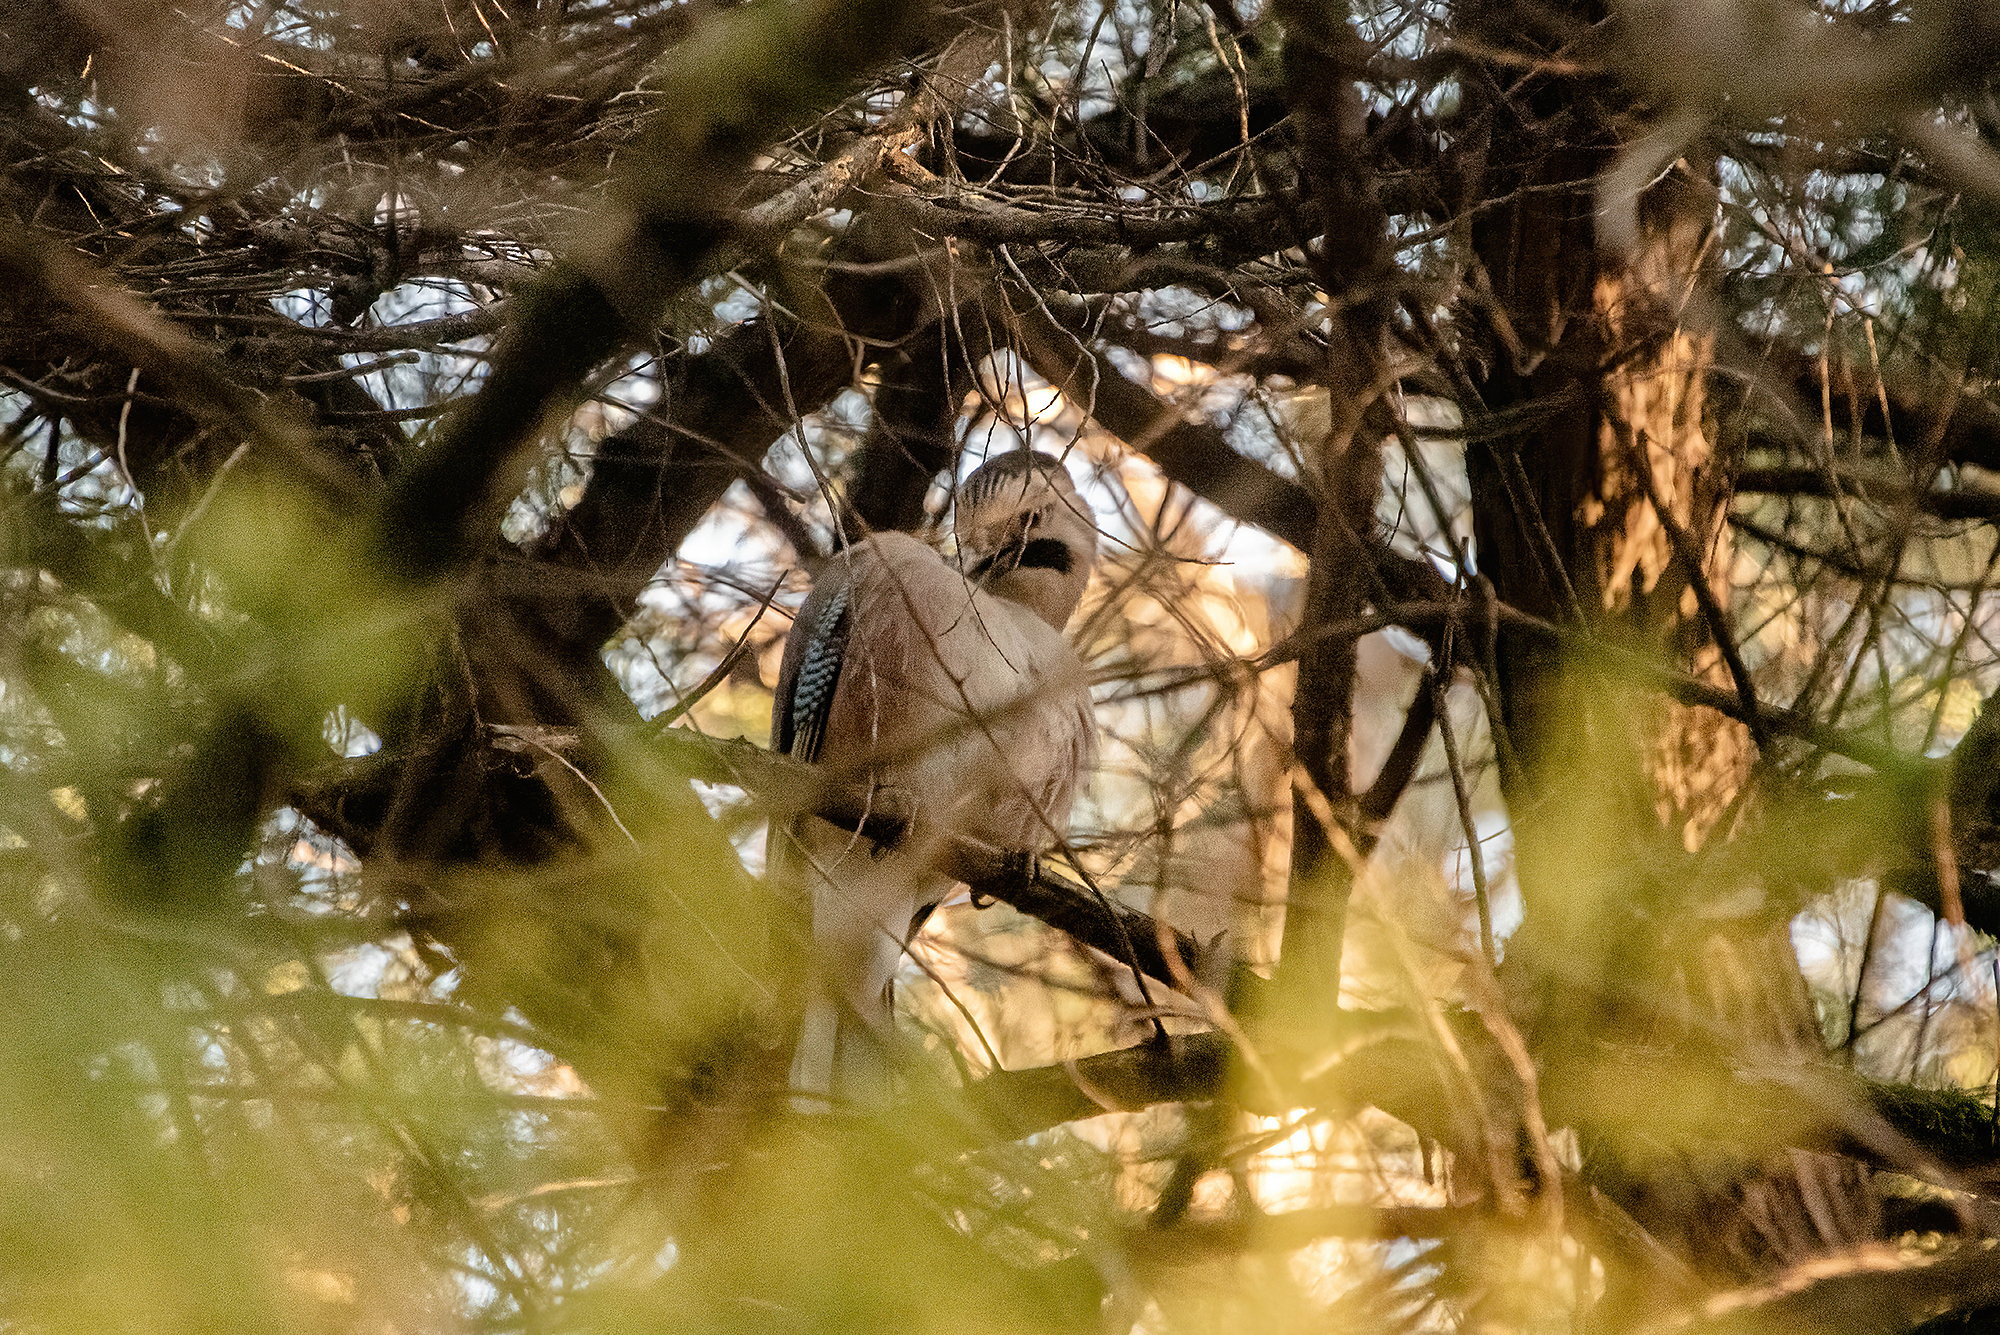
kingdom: Animalia
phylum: Chordata
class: Aves
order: Passeriformes
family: Corvidae
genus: Garrulus
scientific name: Garrulus glandarius
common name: Eurasian jay
